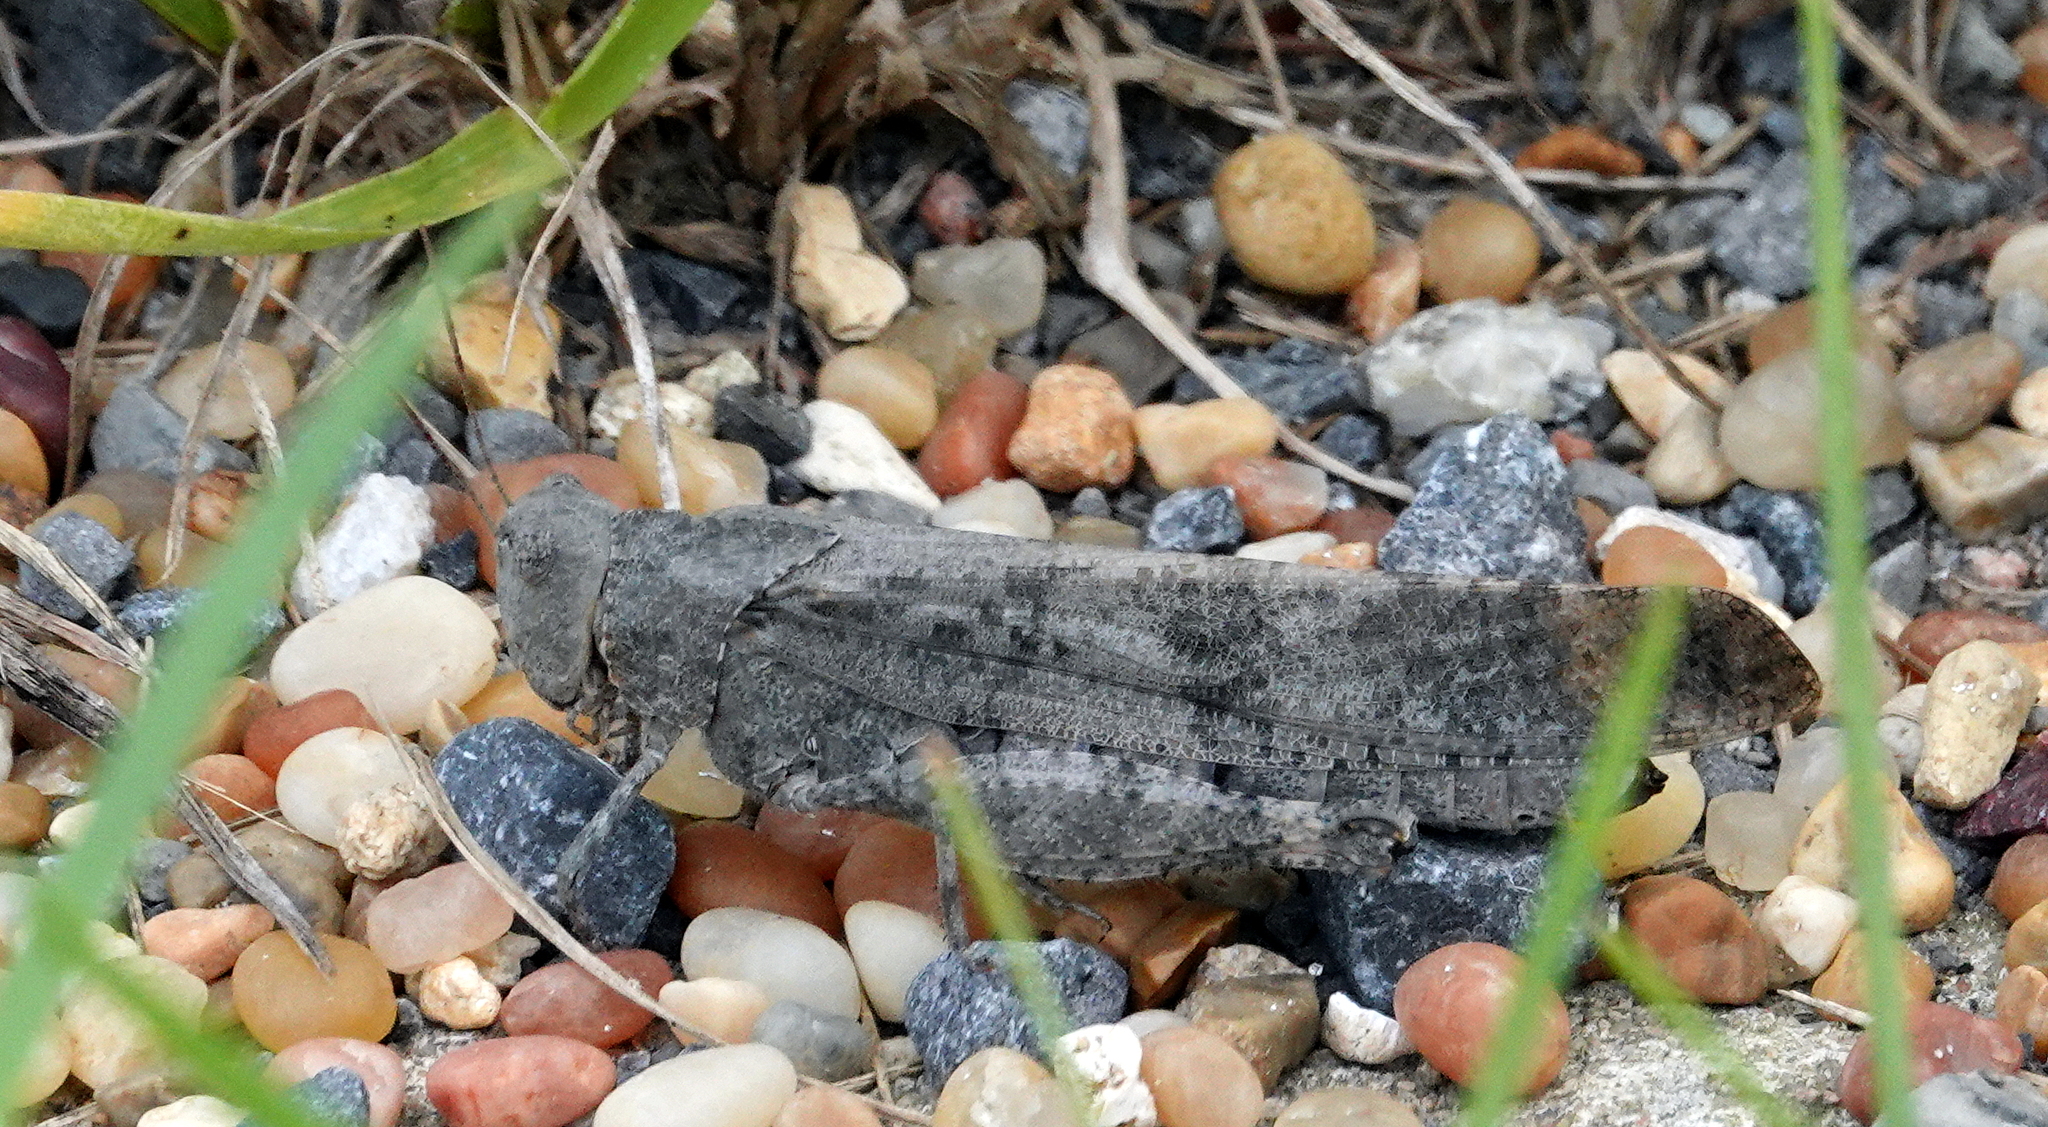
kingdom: Animalia
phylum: Arthropoda
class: Insecta
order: Orthoptera
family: Acrididae
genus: Dissosteira
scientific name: Dissosteira carolina
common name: Carolina grasshopper
